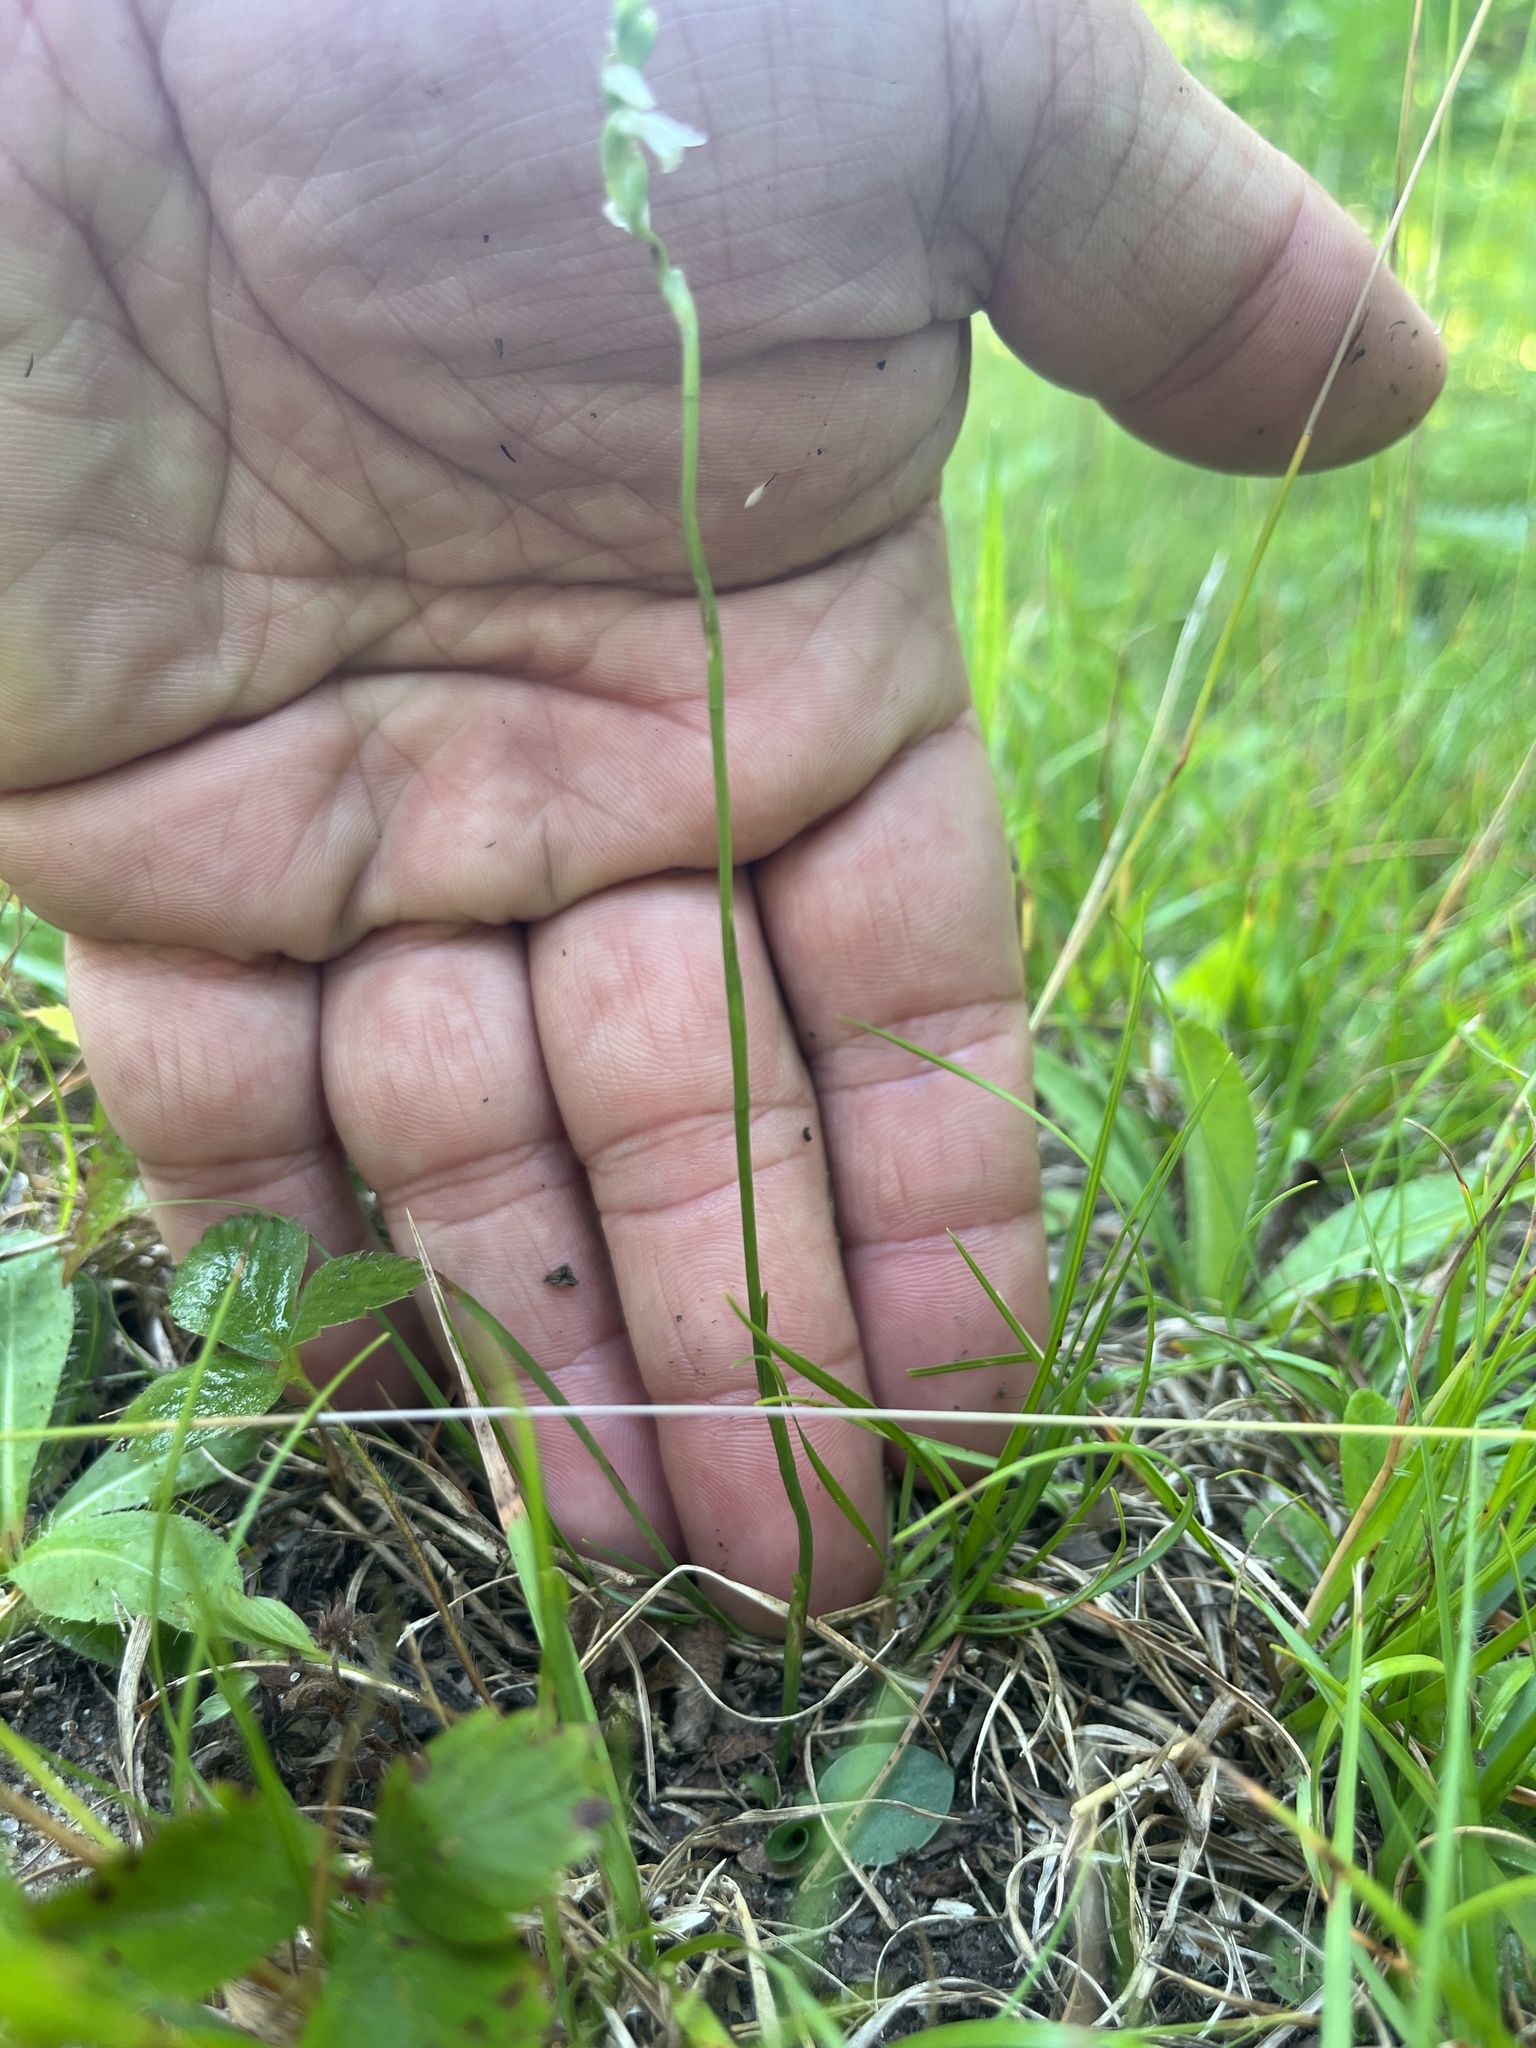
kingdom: Plantae
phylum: Tracheophyta
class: Liliopsida
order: Asparagales
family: Orchidaceae
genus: Spiranthes
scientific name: Spiranthes lacera
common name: Northern slender ladies'-tresses
